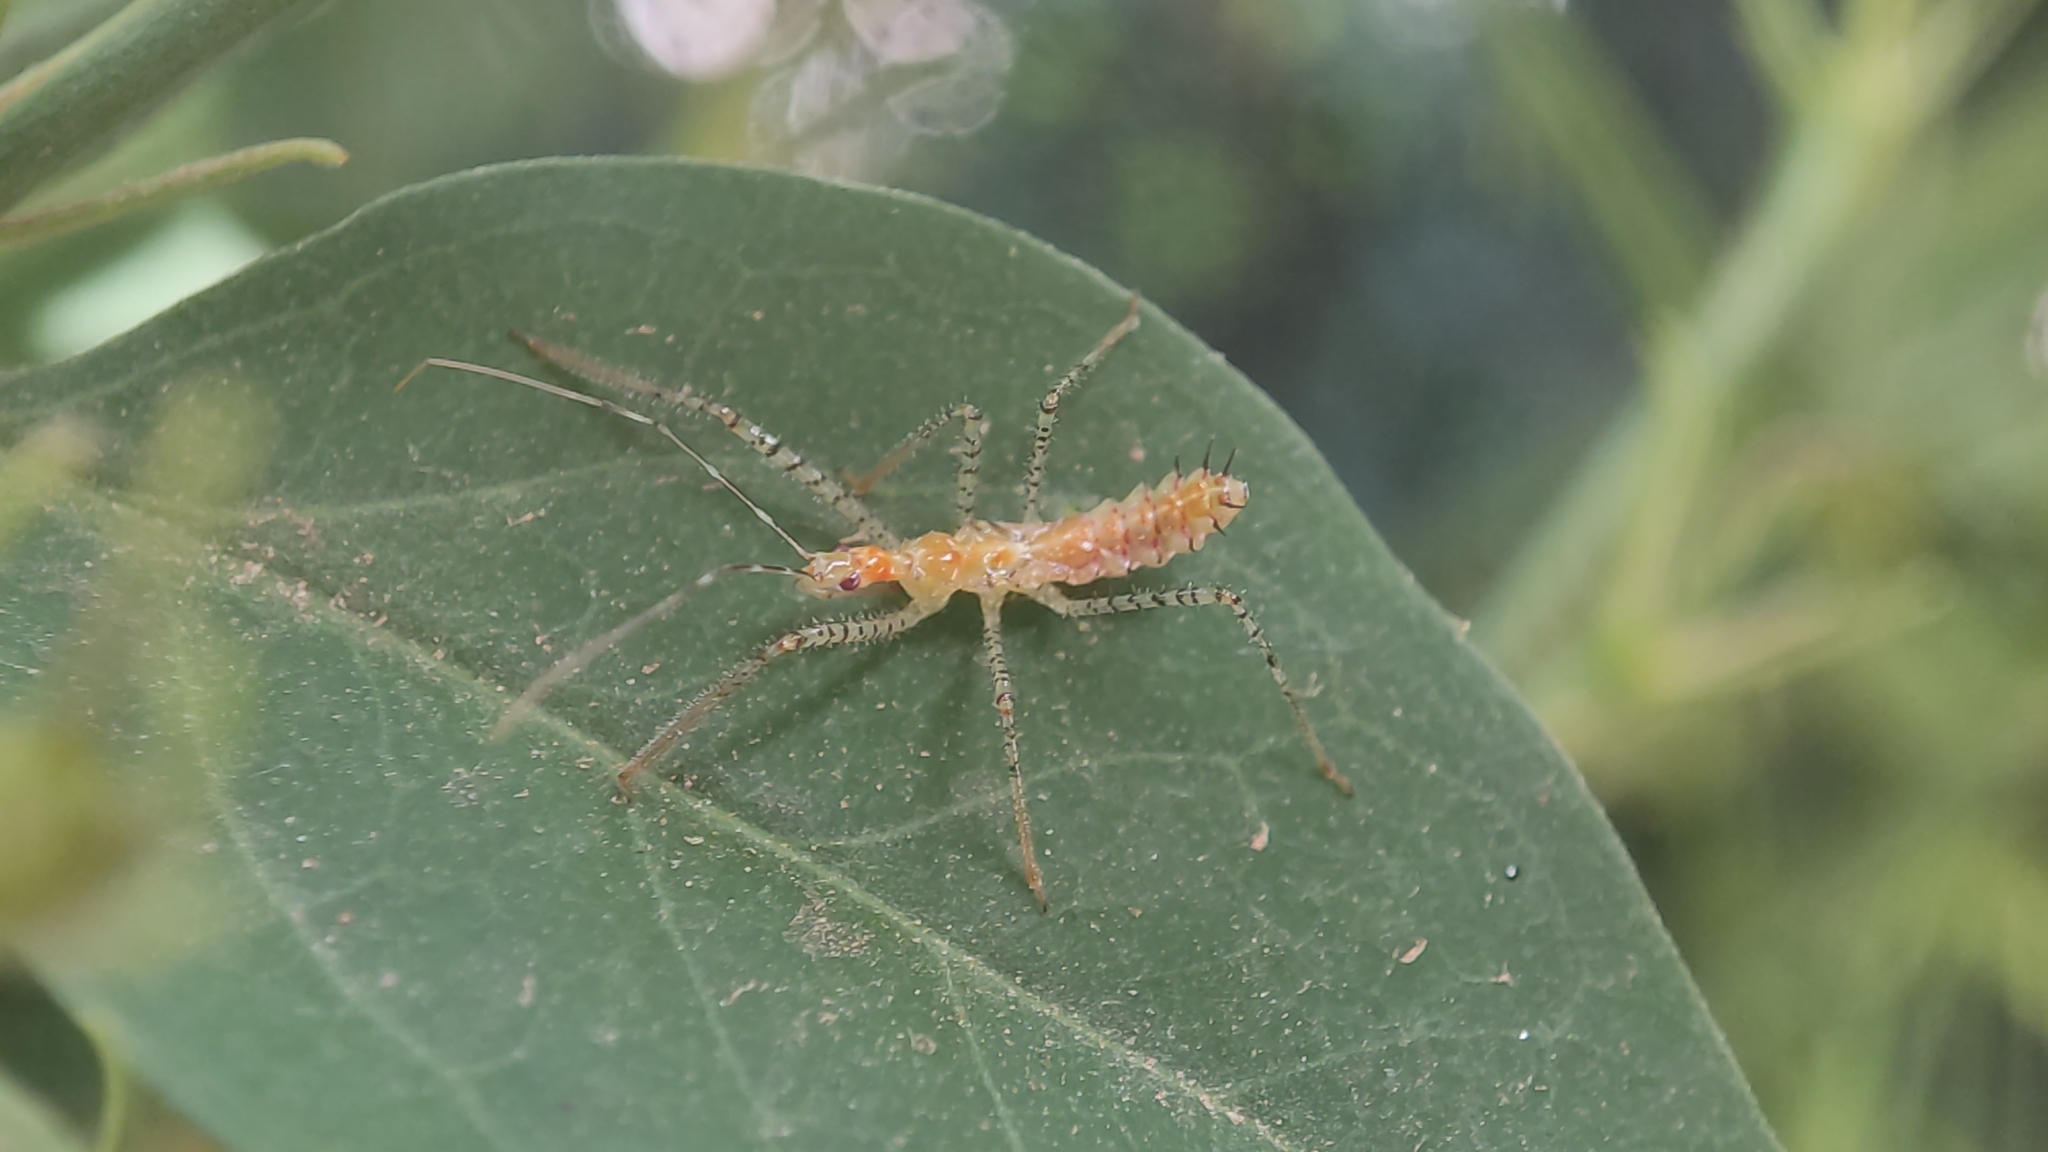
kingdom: Animalia
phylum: Arthropoda
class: Insecta
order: Hemiptera
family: Reduviidae
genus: Zelus
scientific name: Zelus renardii
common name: Assassin bug
